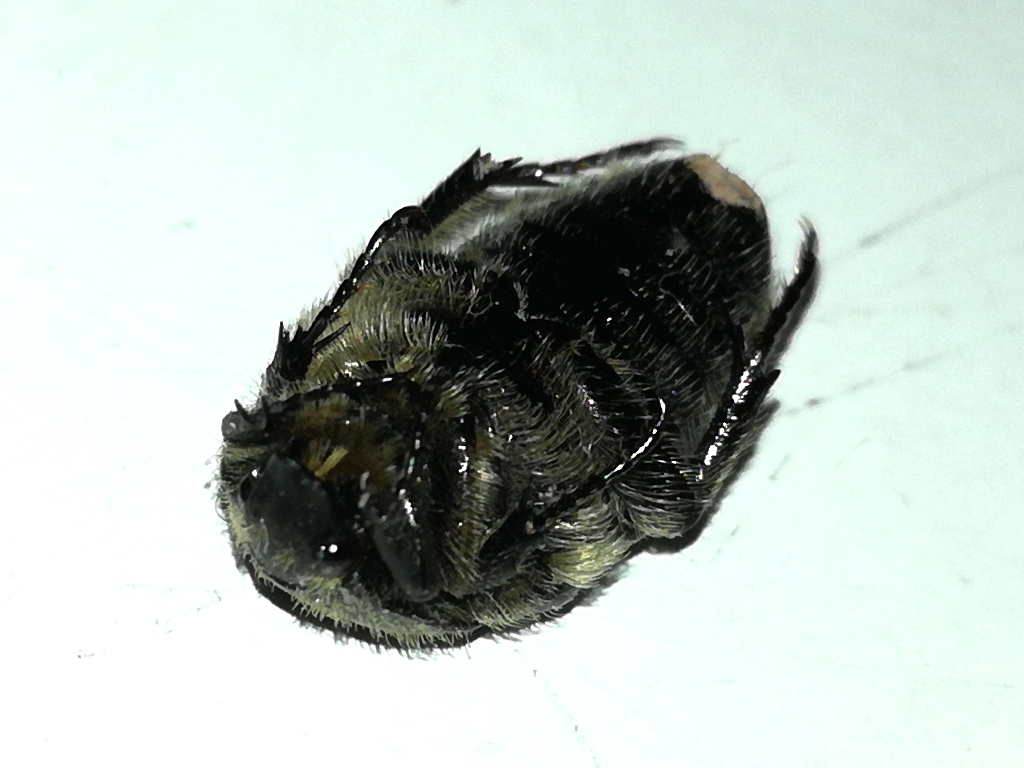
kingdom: Animalia
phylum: Arthropoda
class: Insecta
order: Coleoptera
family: Scarabaeidae
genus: Oxythyrea
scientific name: Oxythyrea funesta
